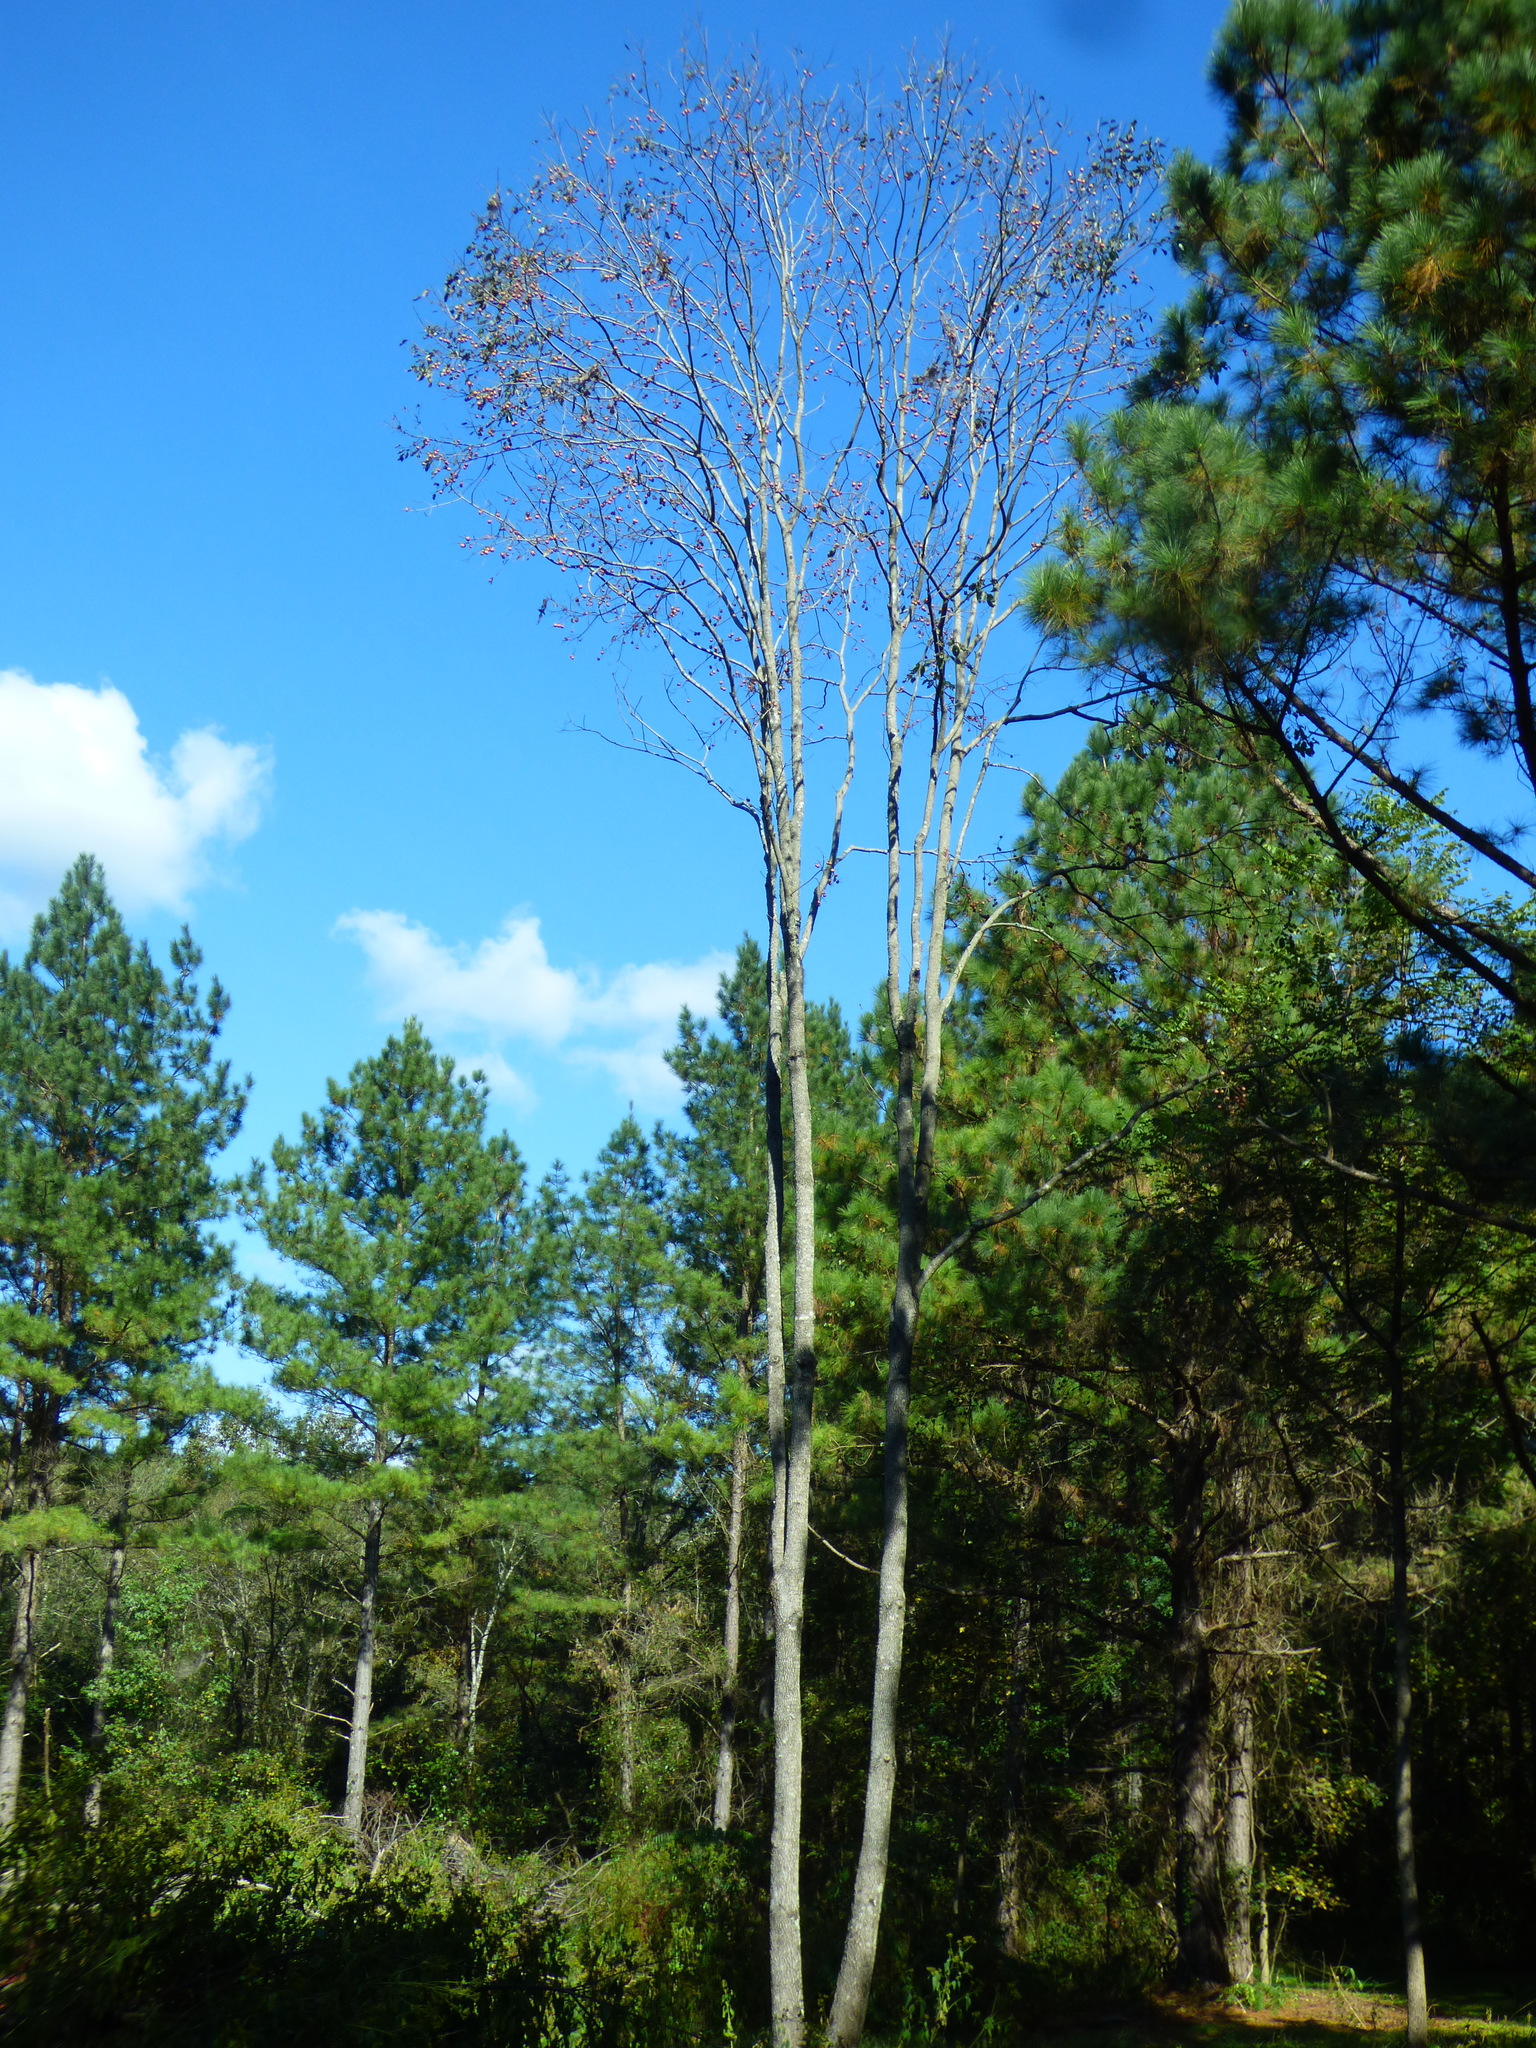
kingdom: Plantae
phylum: Tracheophyta
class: Magnoliopsida
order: Ericales
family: Ebenaceae
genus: Diospyros
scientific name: Diospyros virginiana
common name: Persimmon
